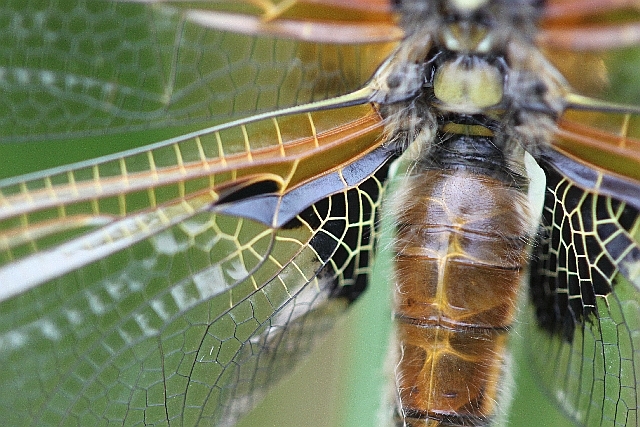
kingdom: Animalia
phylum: Arthropoda
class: Insecta
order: Odonata
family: Libellulidae
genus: Libellula
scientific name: Libellula quadrimaculata
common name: Four-spotted chaser
